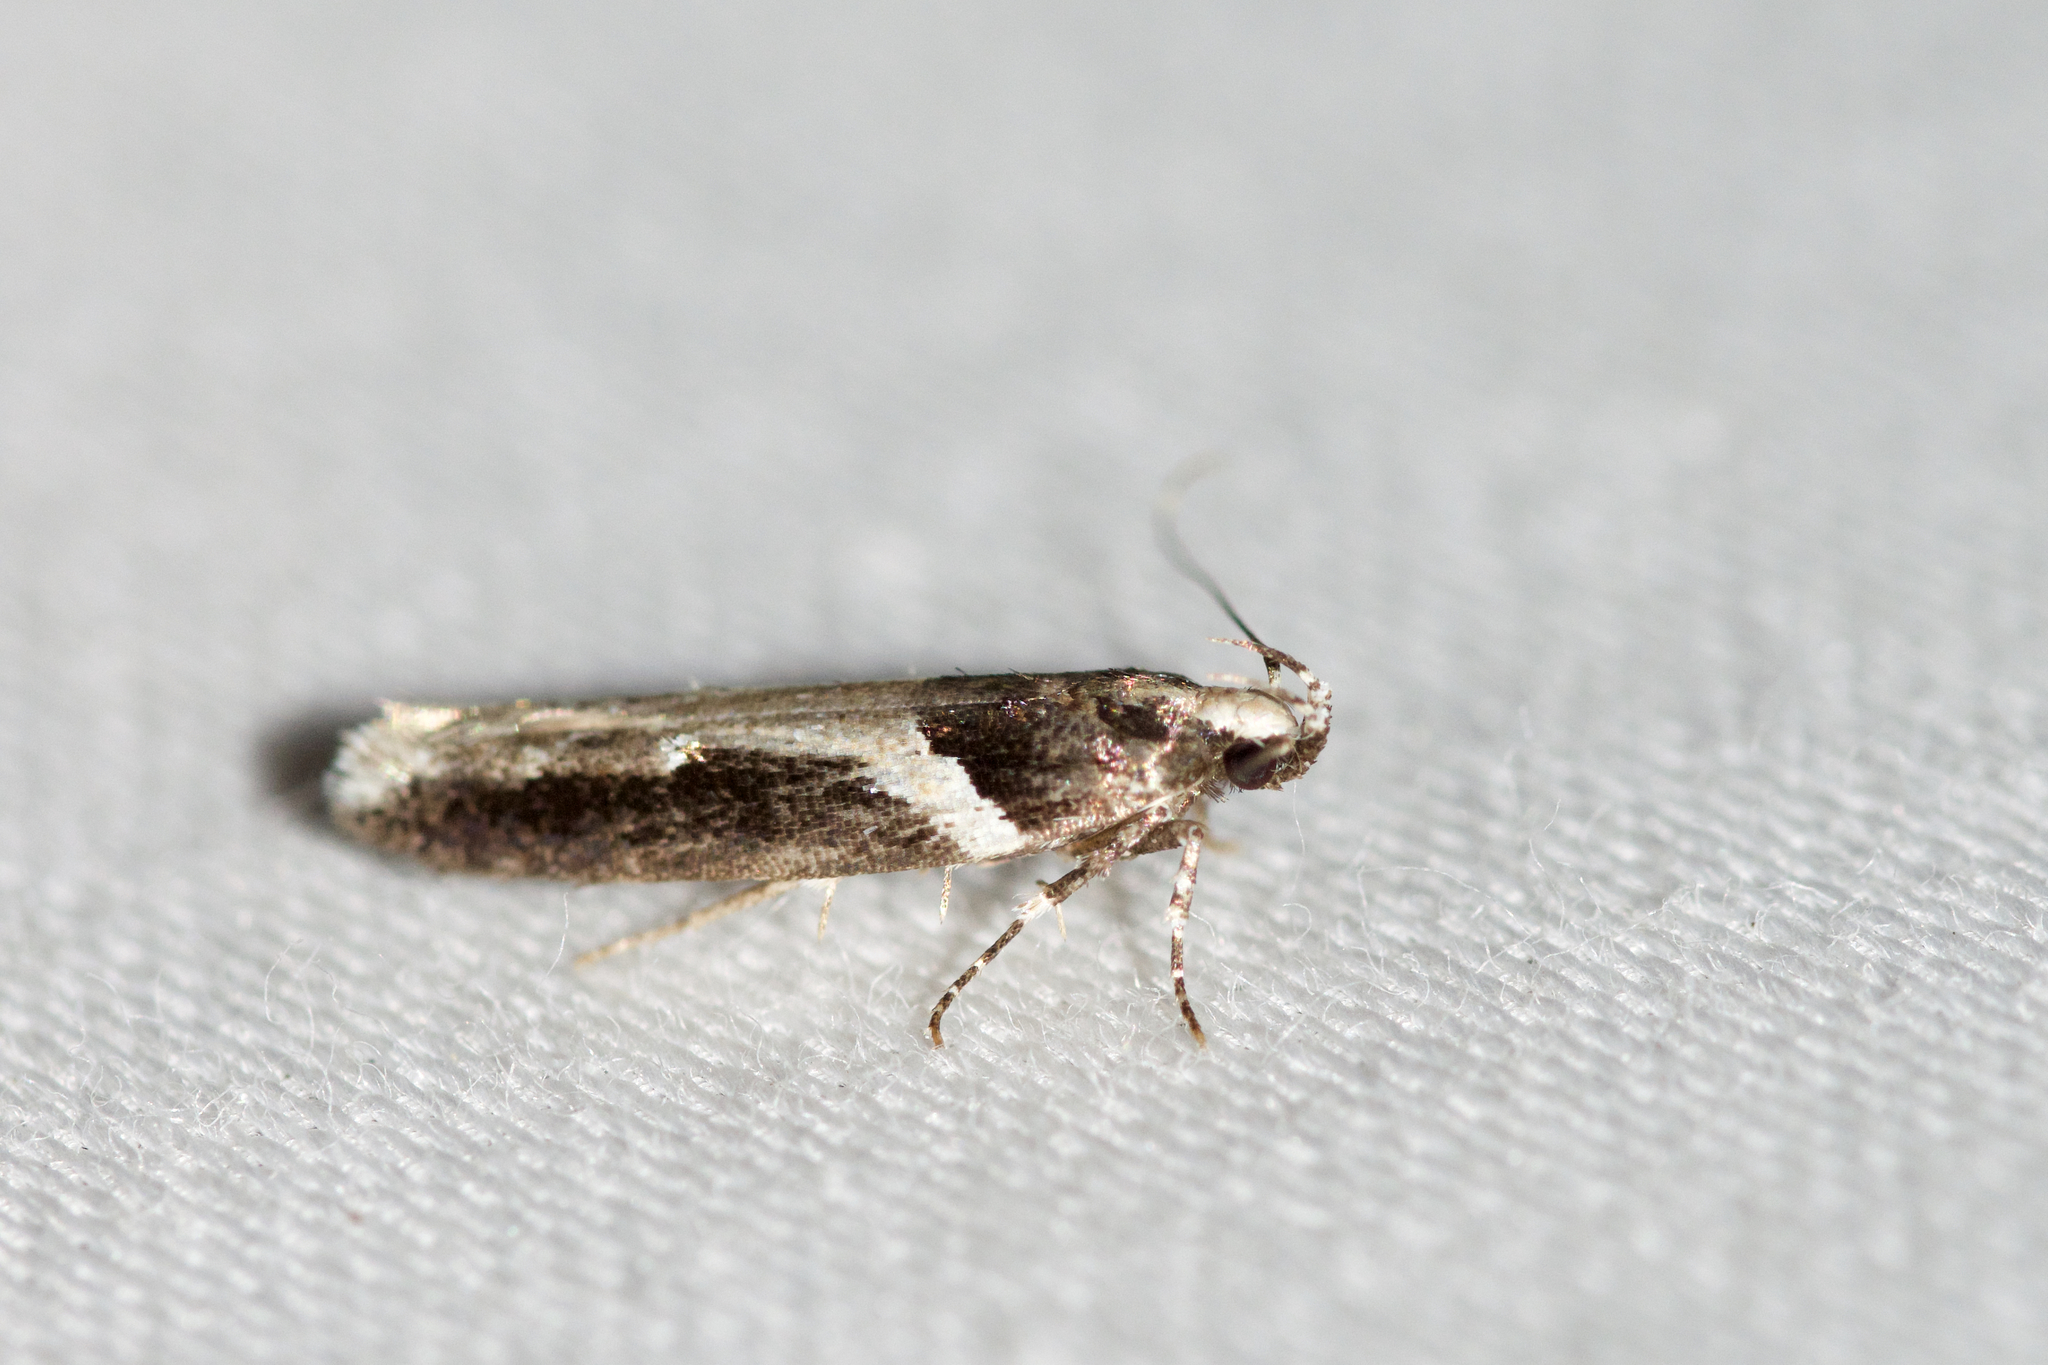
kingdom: Animalia
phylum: Arthropoda
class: Insecta
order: Lepidoptera
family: Gelechiidae
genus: Telphusa
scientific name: Telphusa longifasciella
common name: Y-backed telphusa
